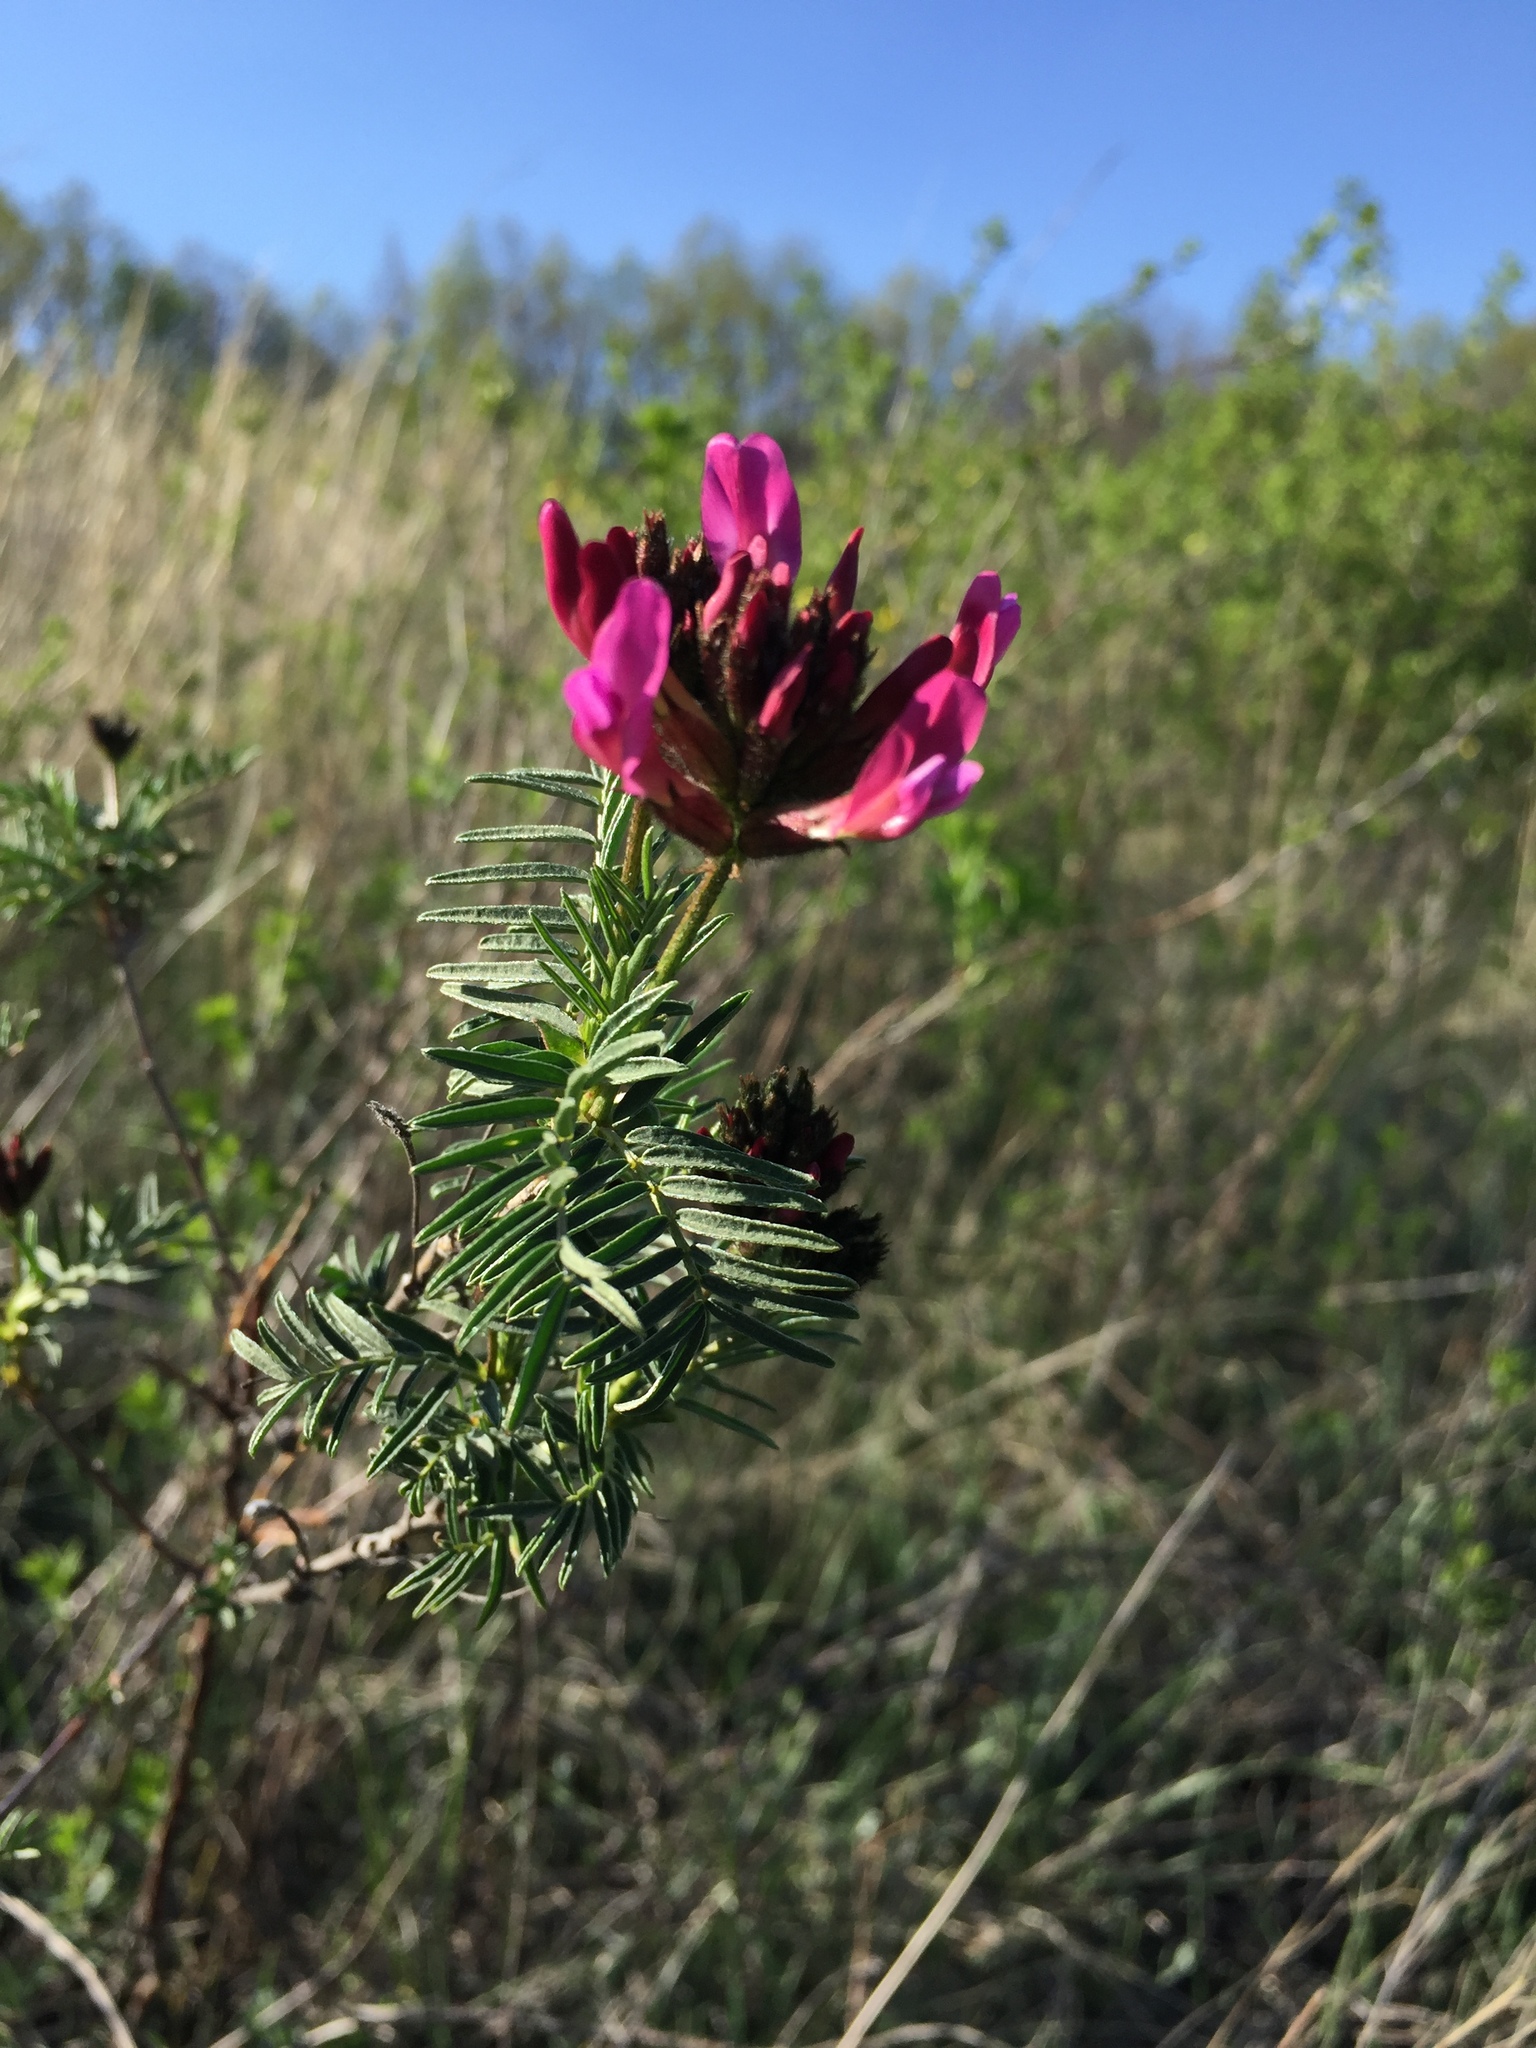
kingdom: Plantae
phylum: Tracheophyta
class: Magnoliopsida
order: Fabales
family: Fabaceae
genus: Astragalus
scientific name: Astragalus cornutus
